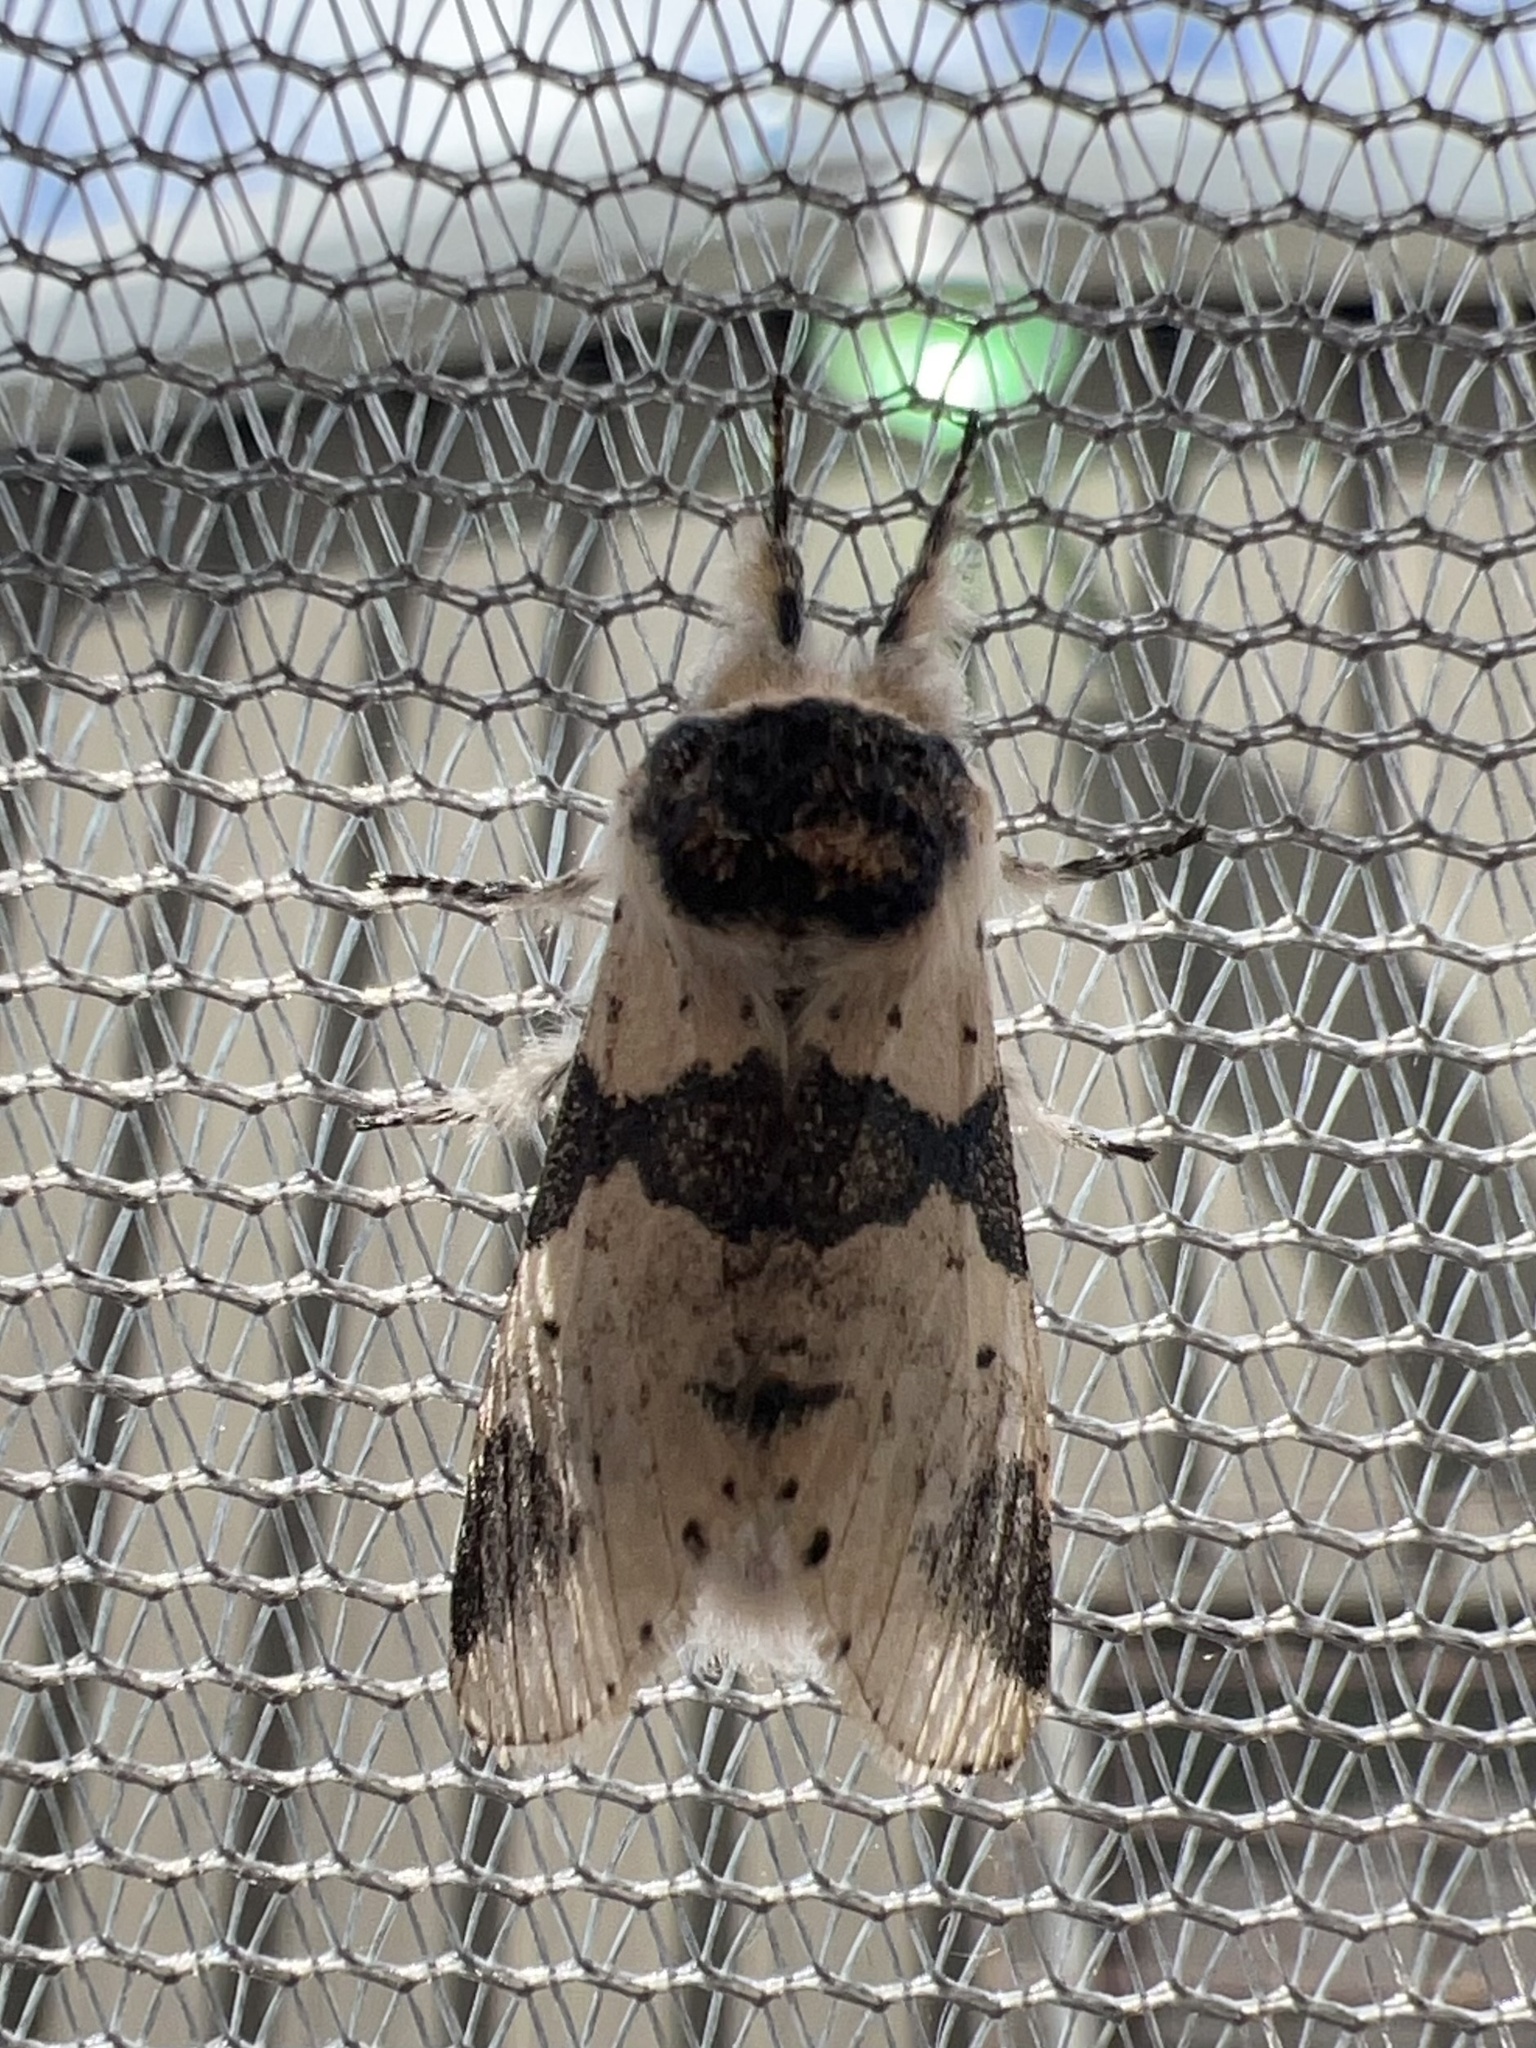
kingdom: Animalia
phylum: Arthropoda
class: Insecta
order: Lepidoptera
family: Notodontidae
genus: Furcula
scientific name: Furcula modesta
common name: Modest furcula moth
